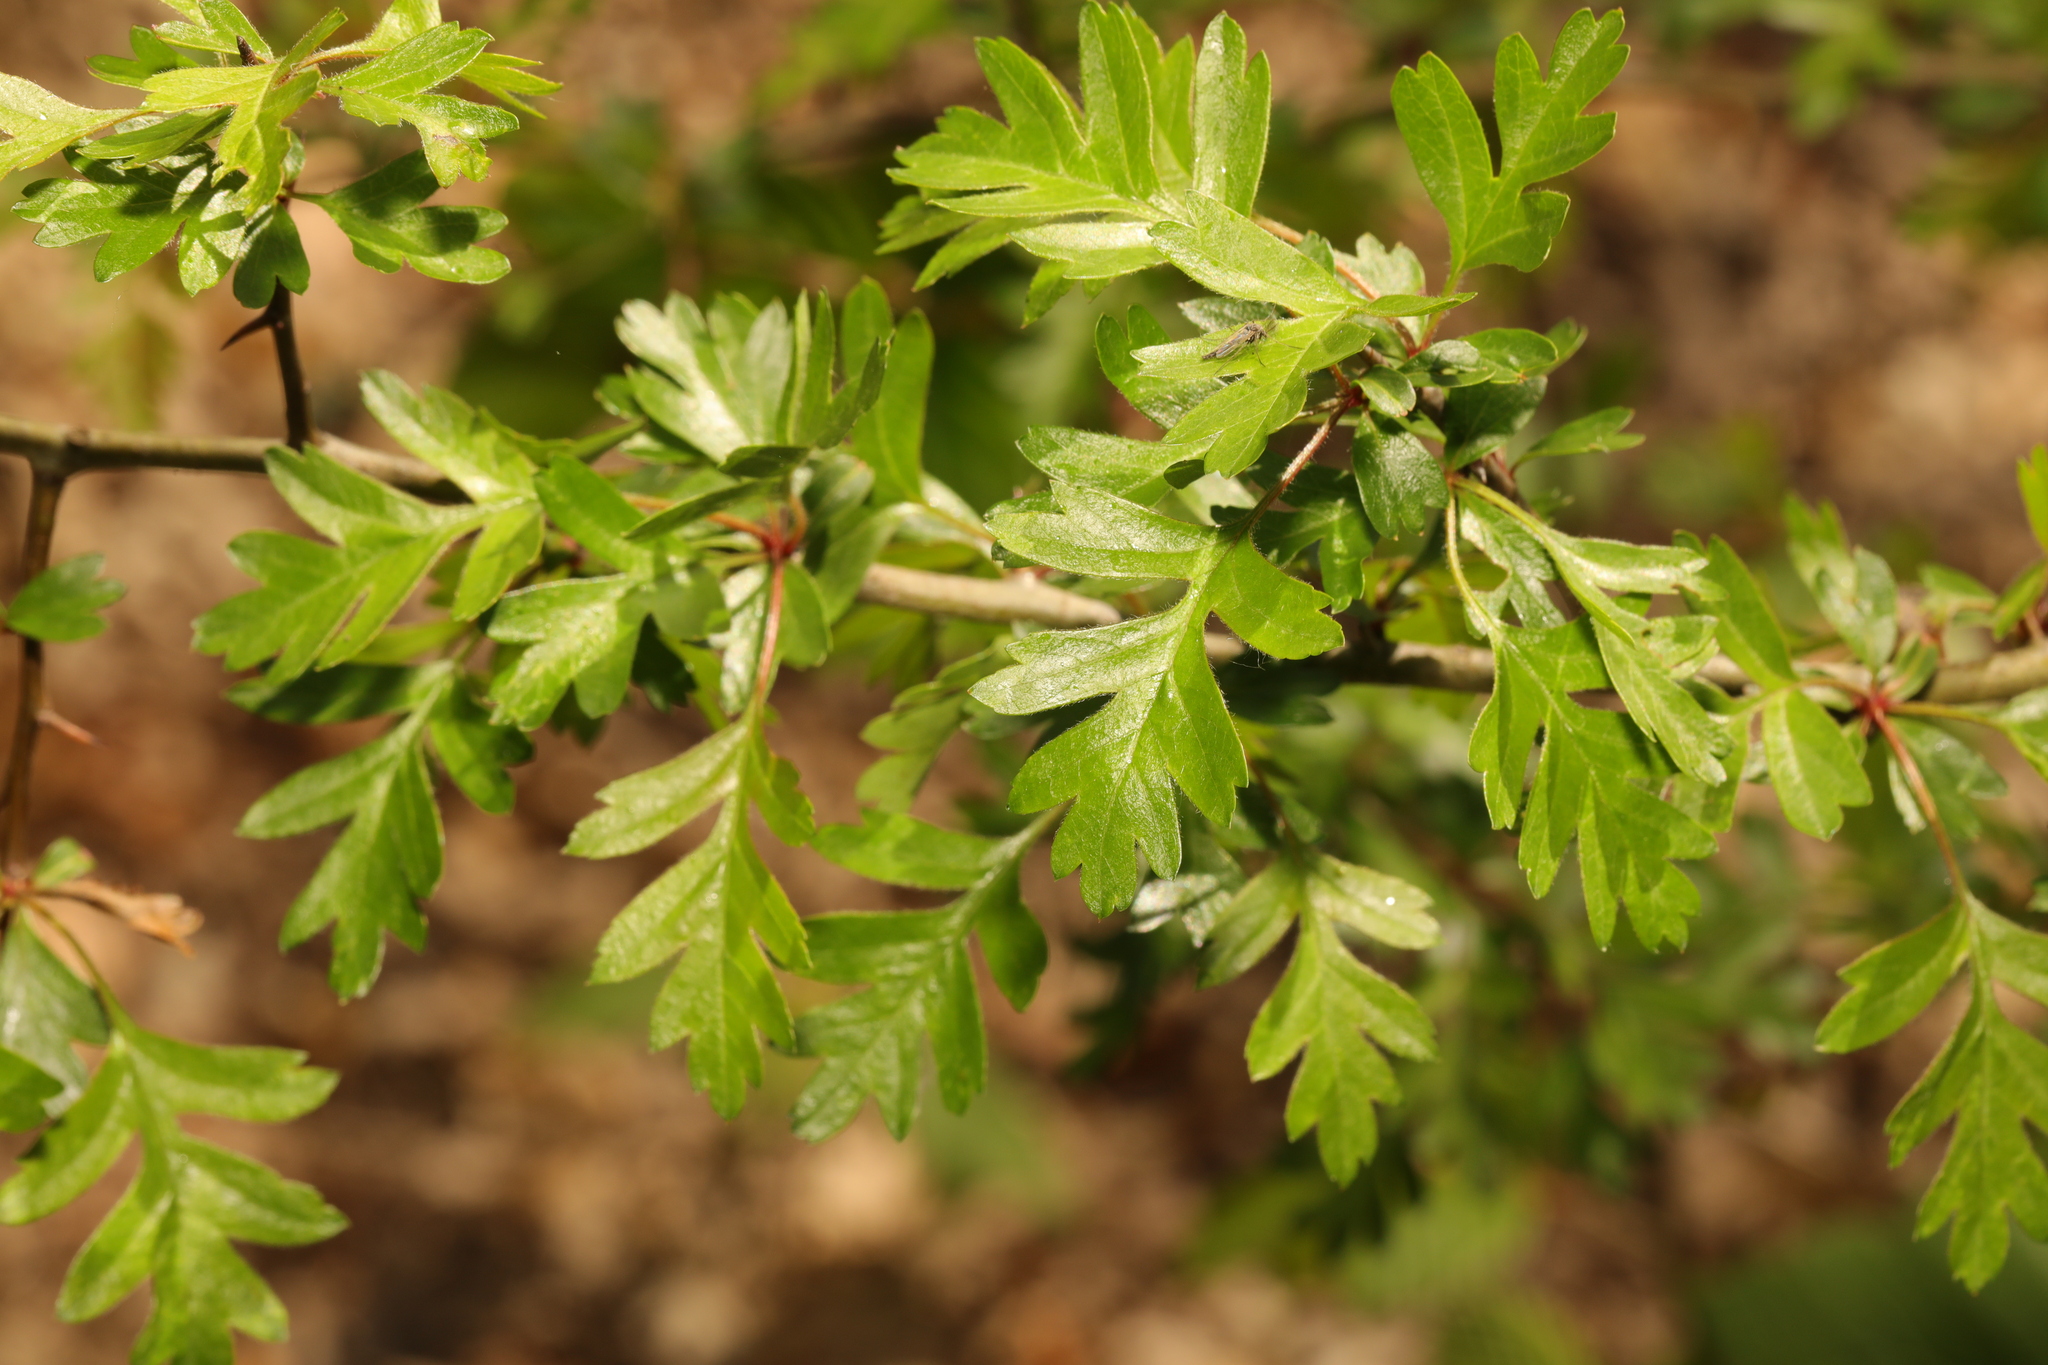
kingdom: Plantae
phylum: Tracheophyta
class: Magnoliopsida
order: Rosales
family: Rosaceae
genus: Crataegus
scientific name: Crataegus monogyna
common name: Hawthorn
